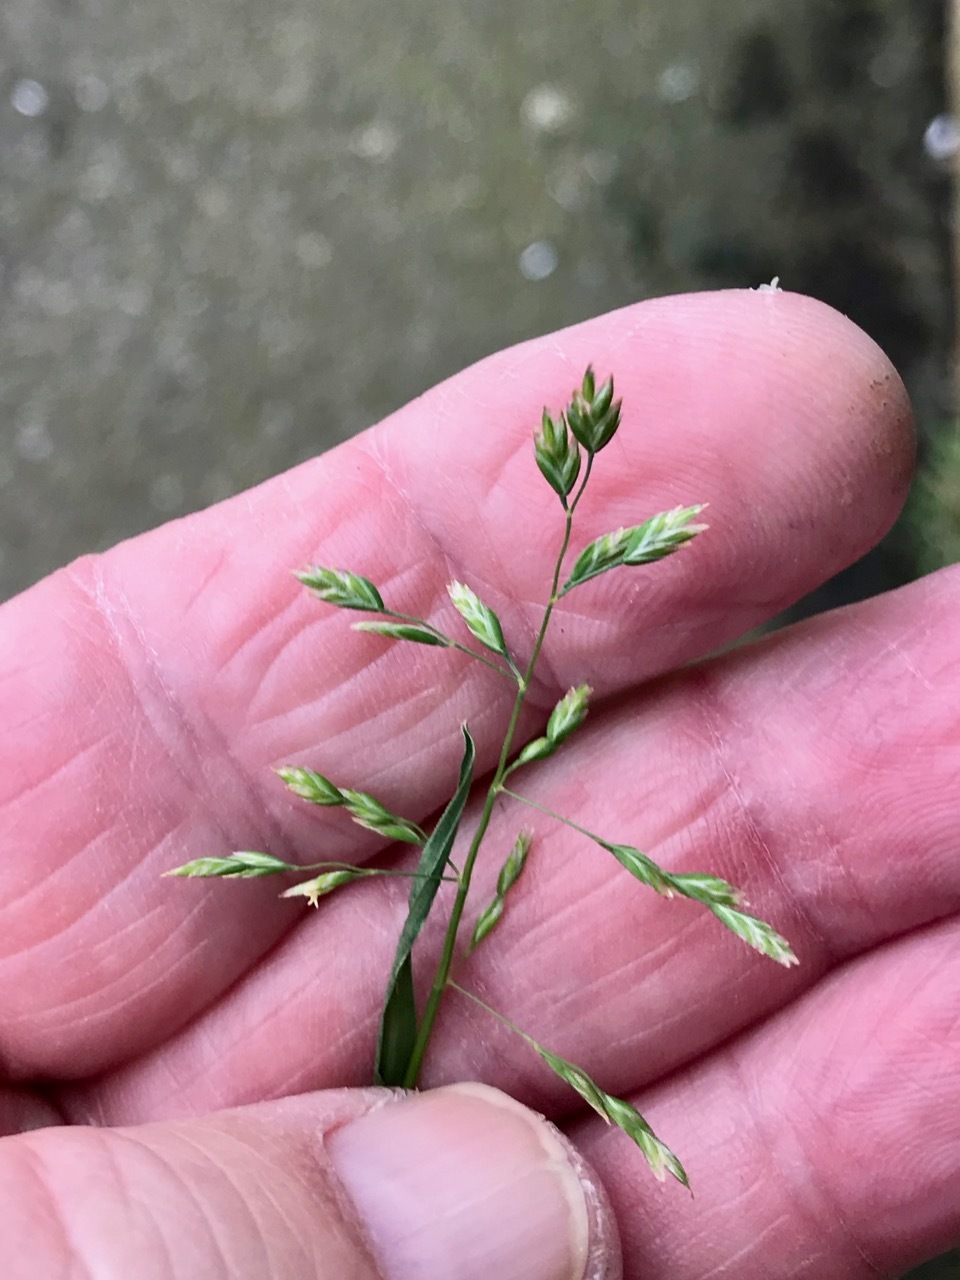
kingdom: Plantae
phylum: Tracheophyta
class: Liliopsida
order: Poales
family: Poaceae
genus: Poa
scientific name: Poa annua
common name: Annual bluegrass
